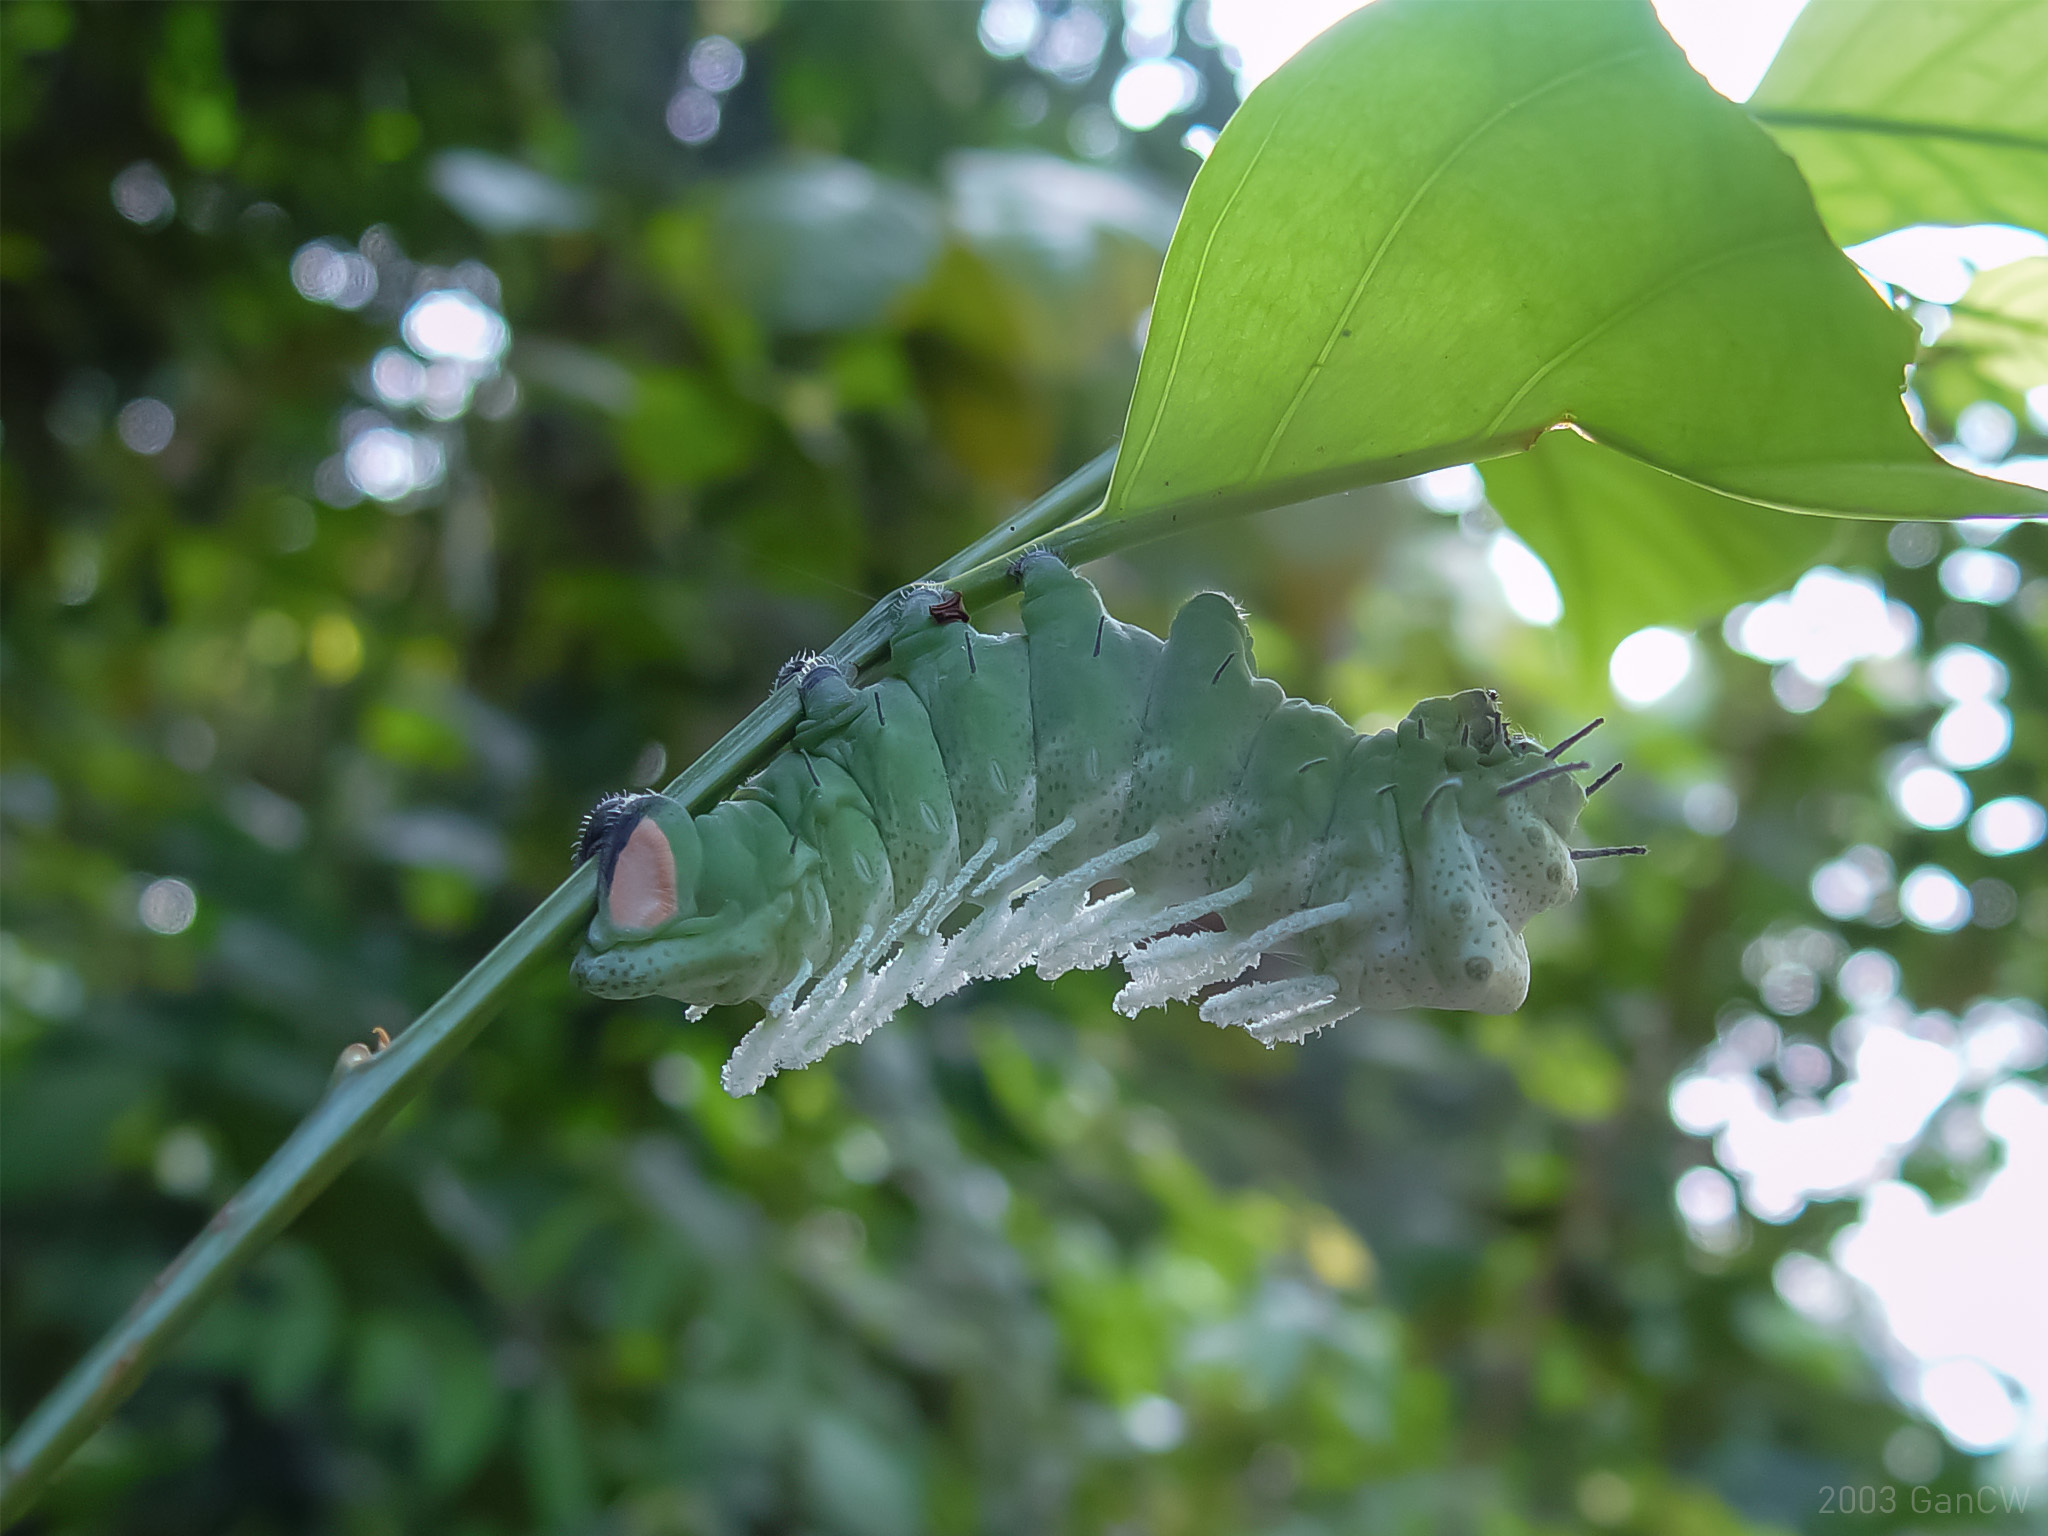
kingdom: Animalia
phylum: Arthropoda
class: Insecta
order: Lepidoptera
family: Saturniidae
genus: Attacus
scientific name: Attacus atlas
